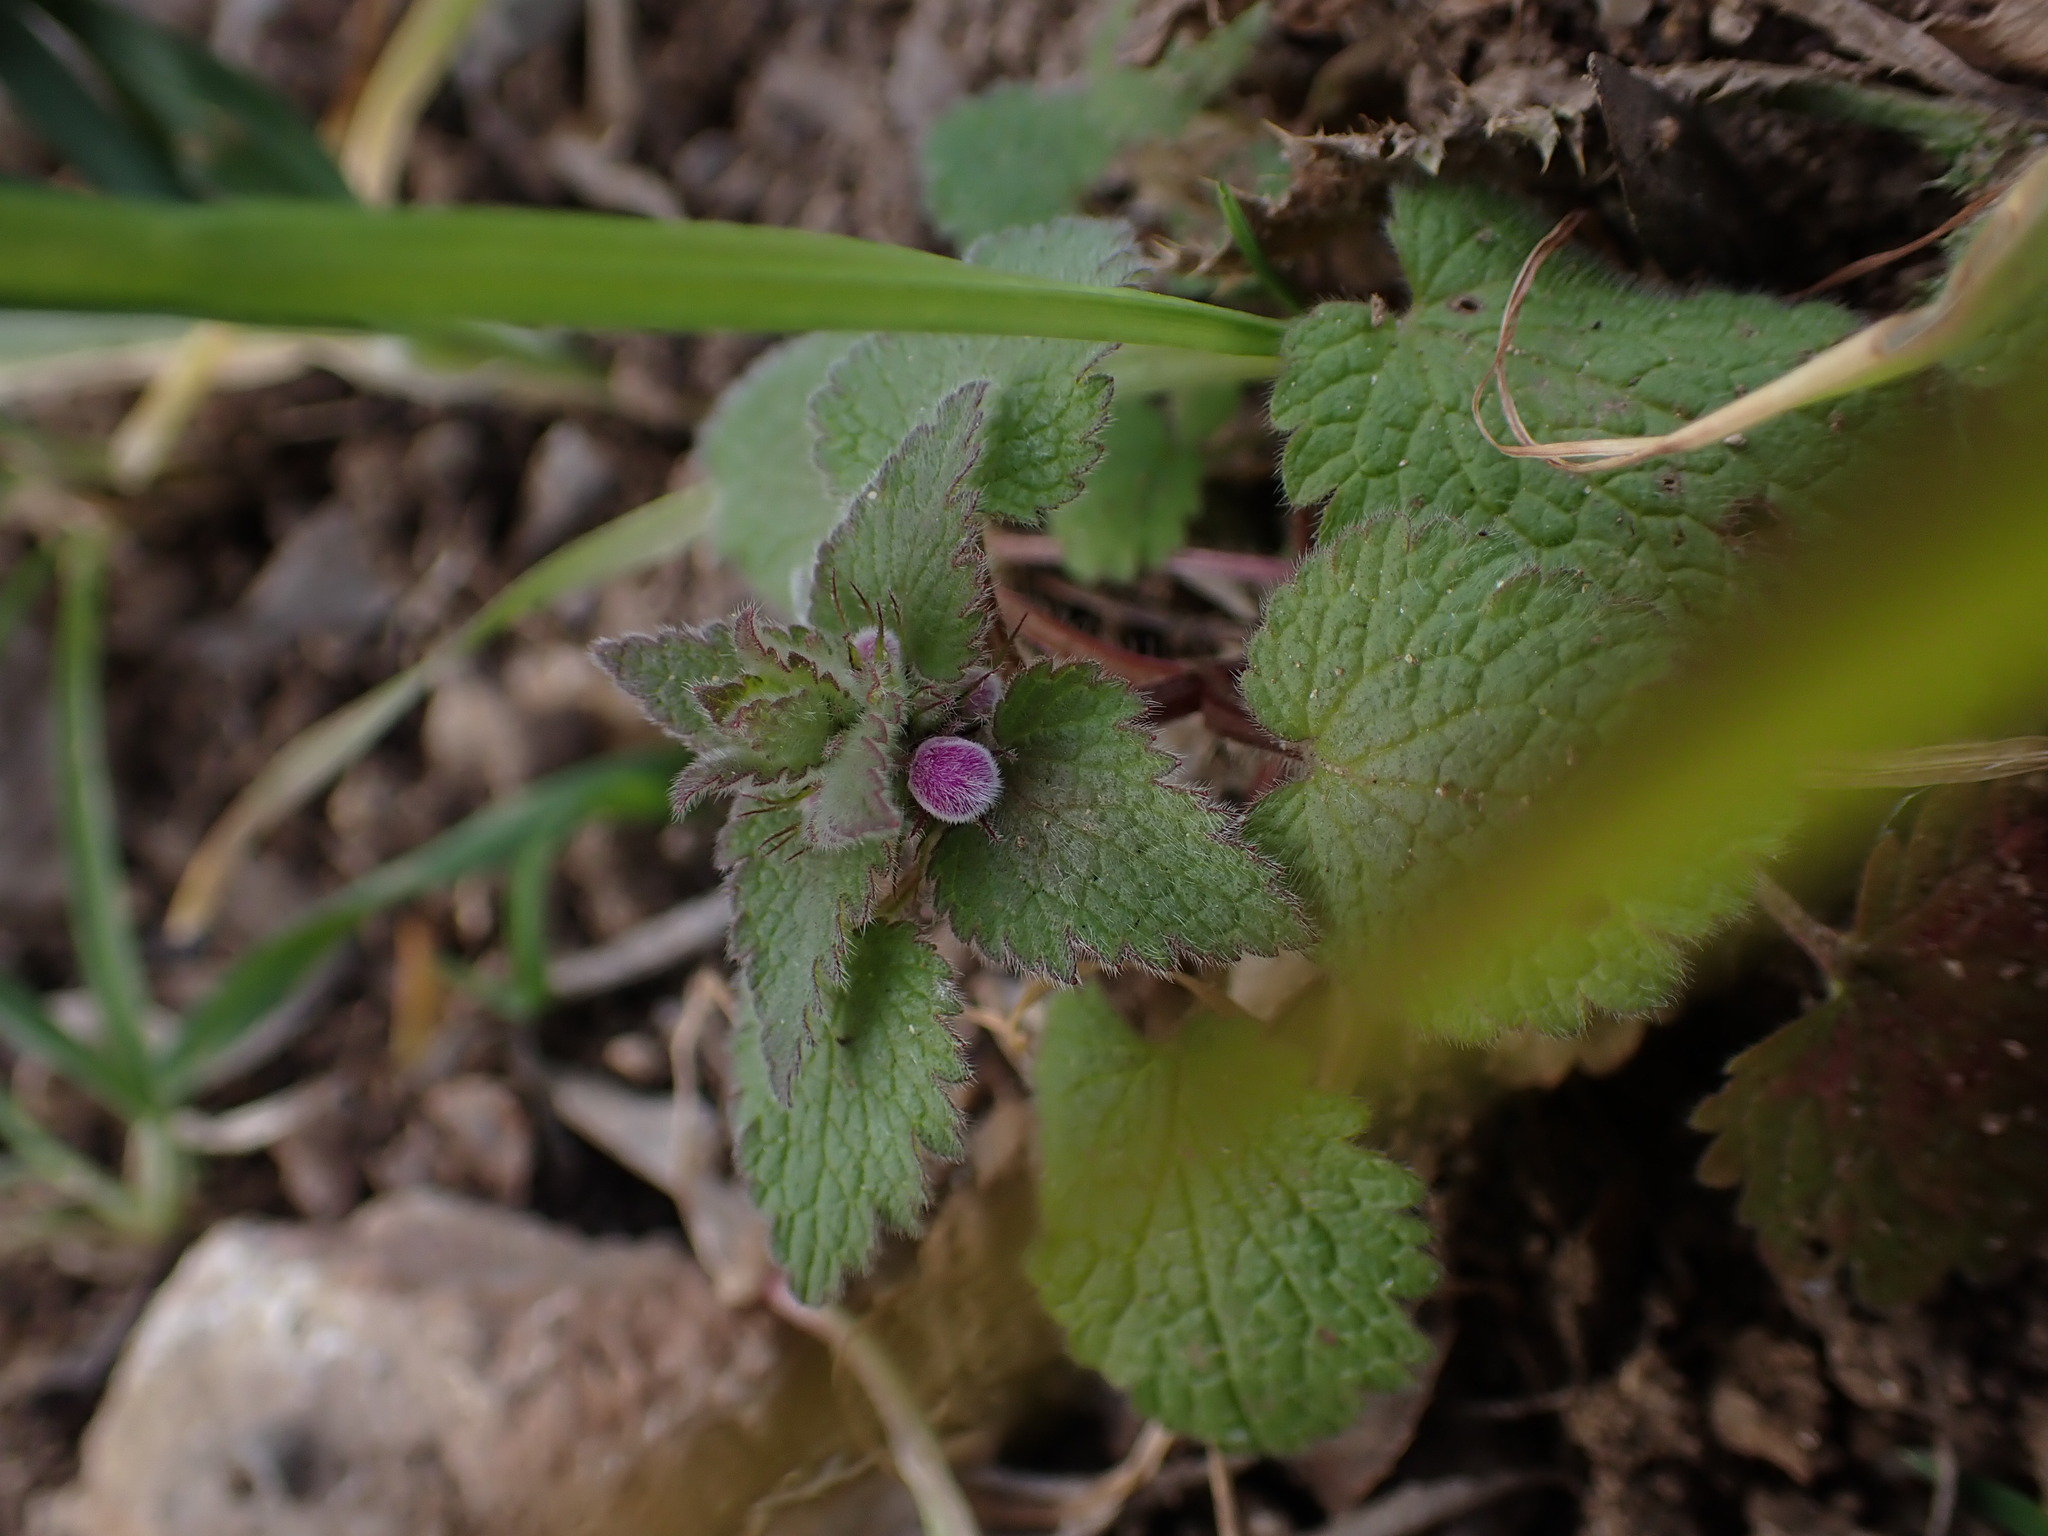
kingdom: Plantae
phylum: Tracheophyta
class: Magnoliopsida
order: Lamiales
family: Lamiaceae
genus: Lamium
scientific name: Lamium purpureum
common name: Red dead-nettle
